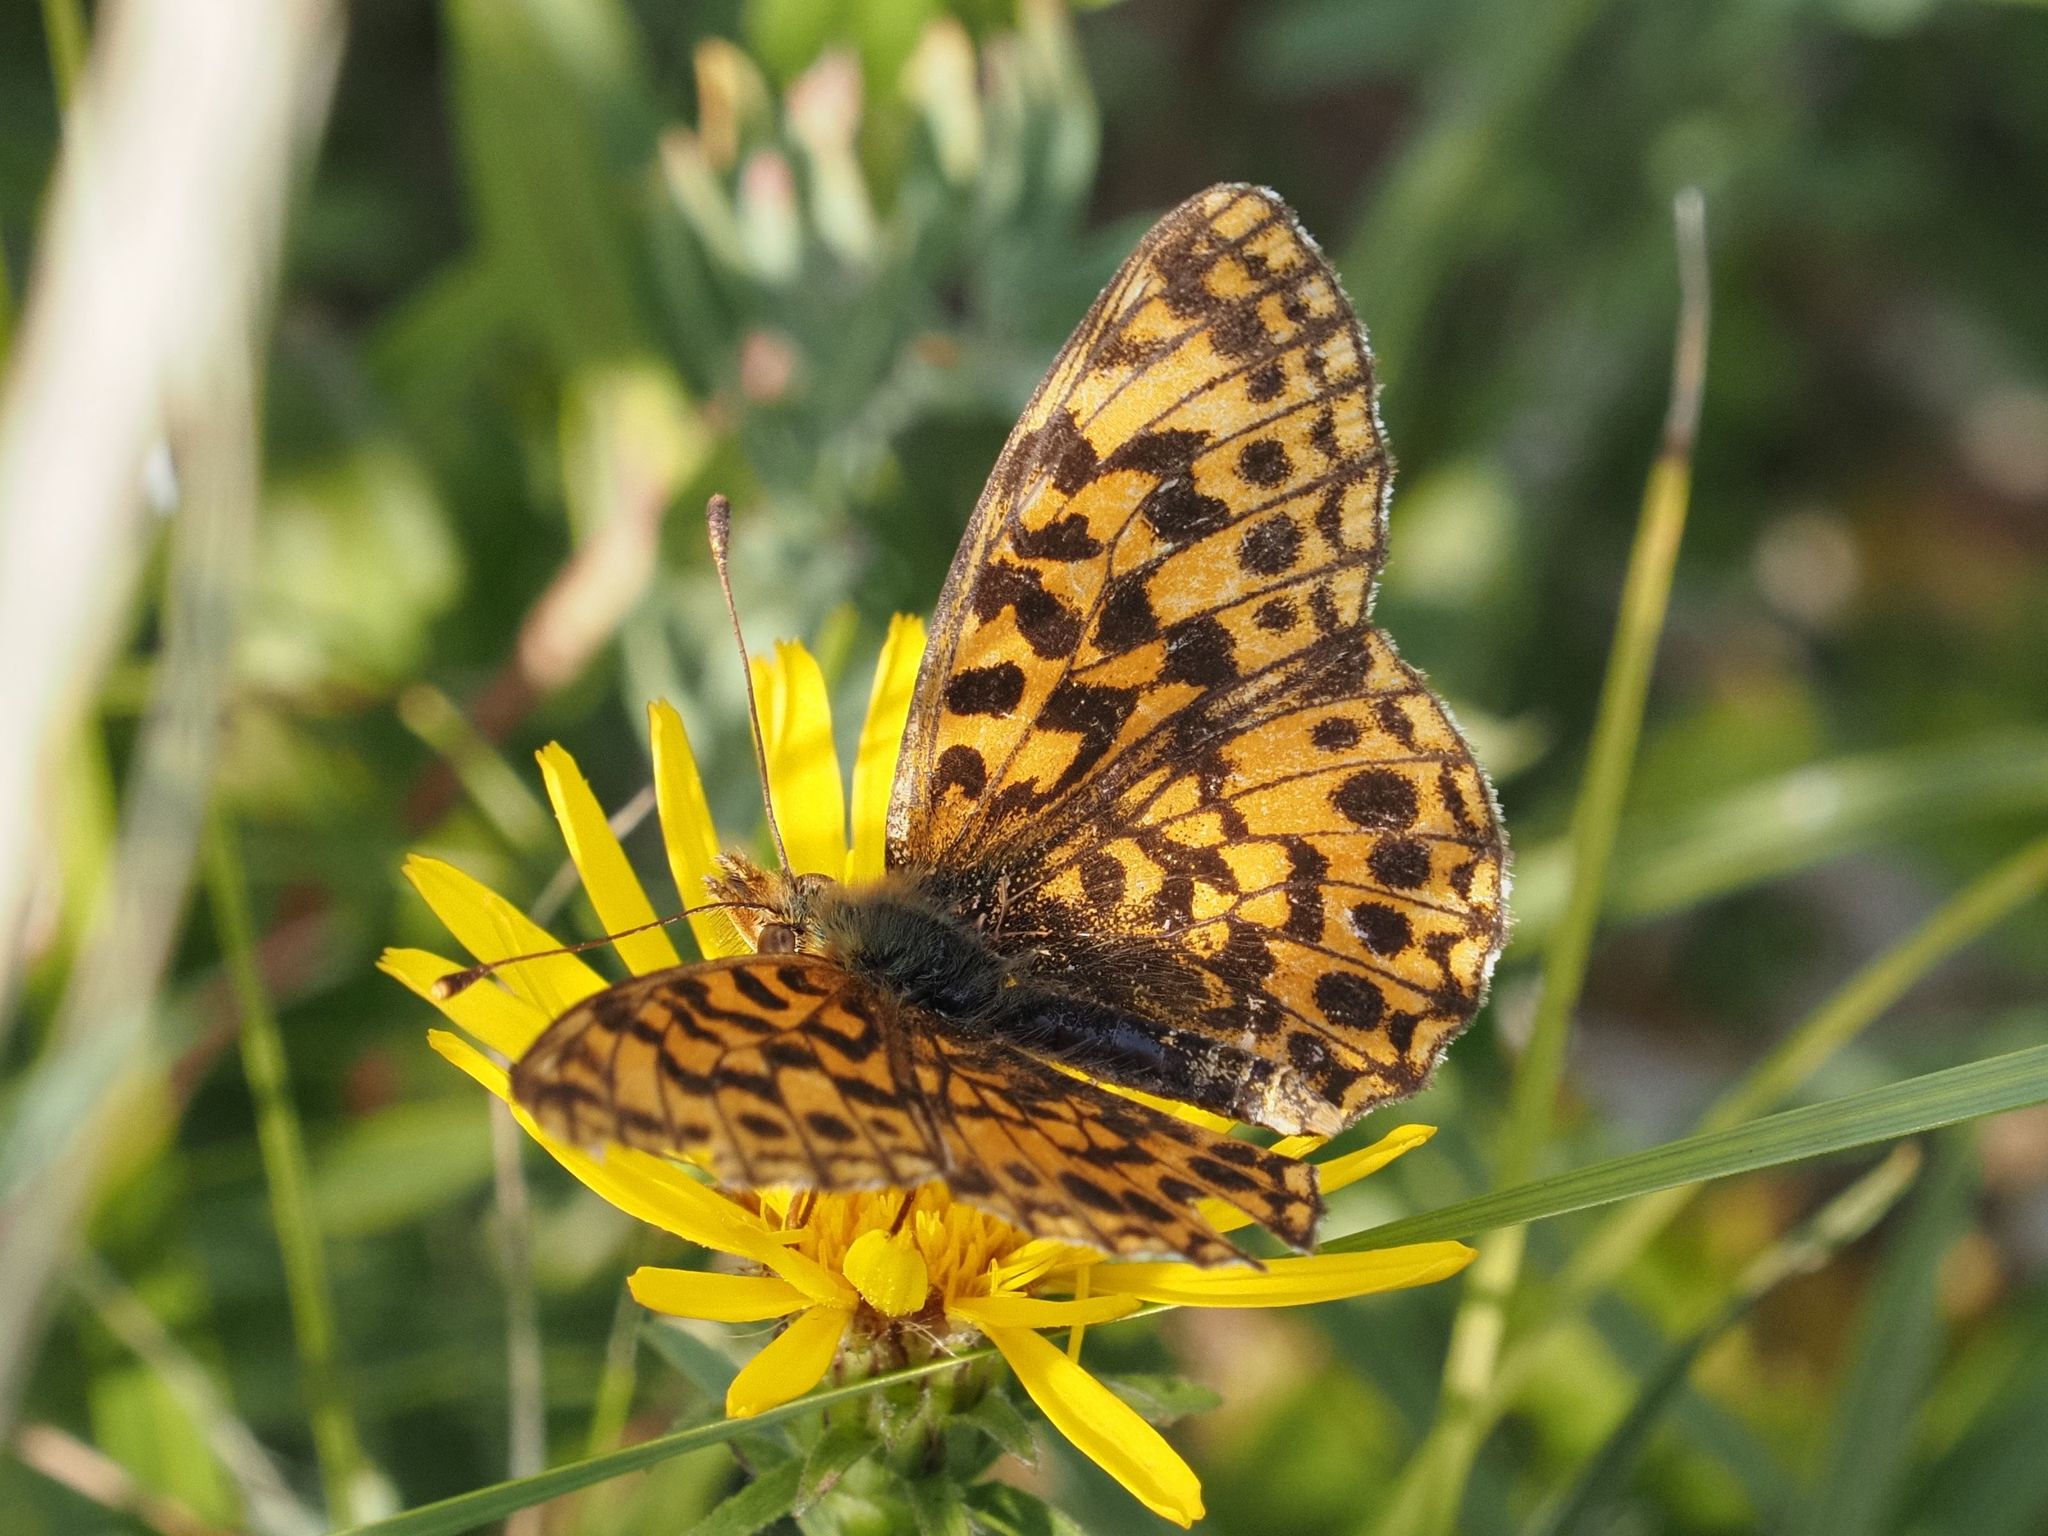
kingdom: Animalia
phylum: Arthropoda
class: Insecta
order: Lepidoptera
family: Nymphalidae
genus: Boloria
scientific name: Boloria dia
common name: Weaver's fritillary
